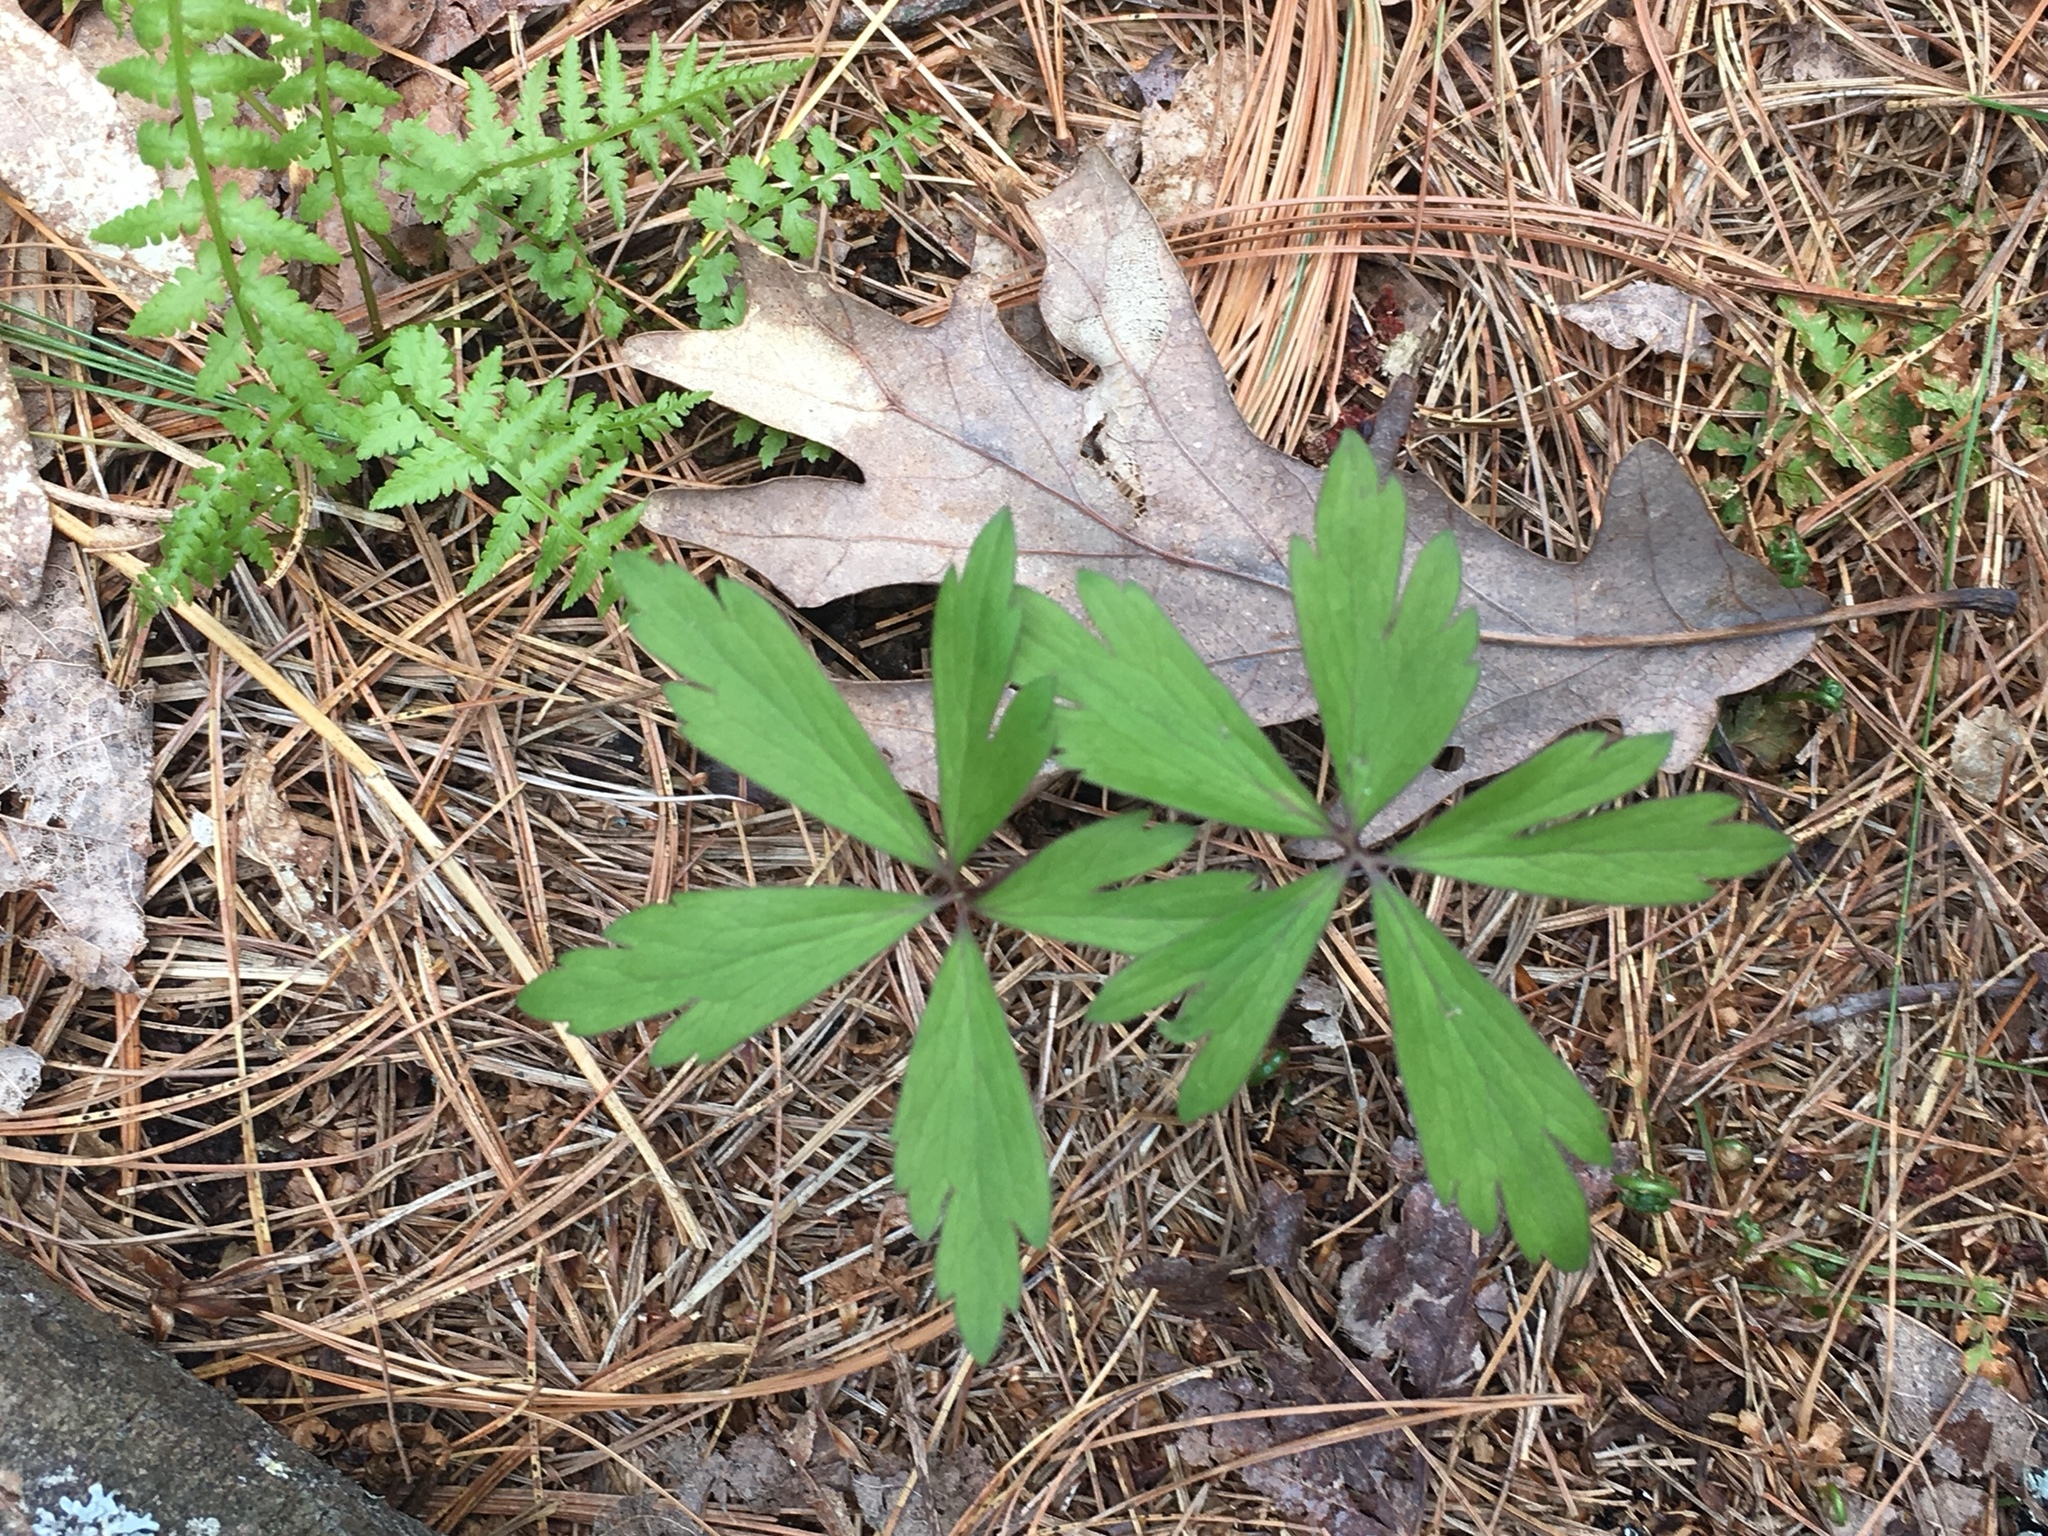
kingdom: Plantae
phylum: Tracheophyta
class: Magnoliopsida
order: Ranunculales
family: Ranunculaceae
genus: Anemone
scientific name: Anemone quinquefolia
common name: Wood anemone
